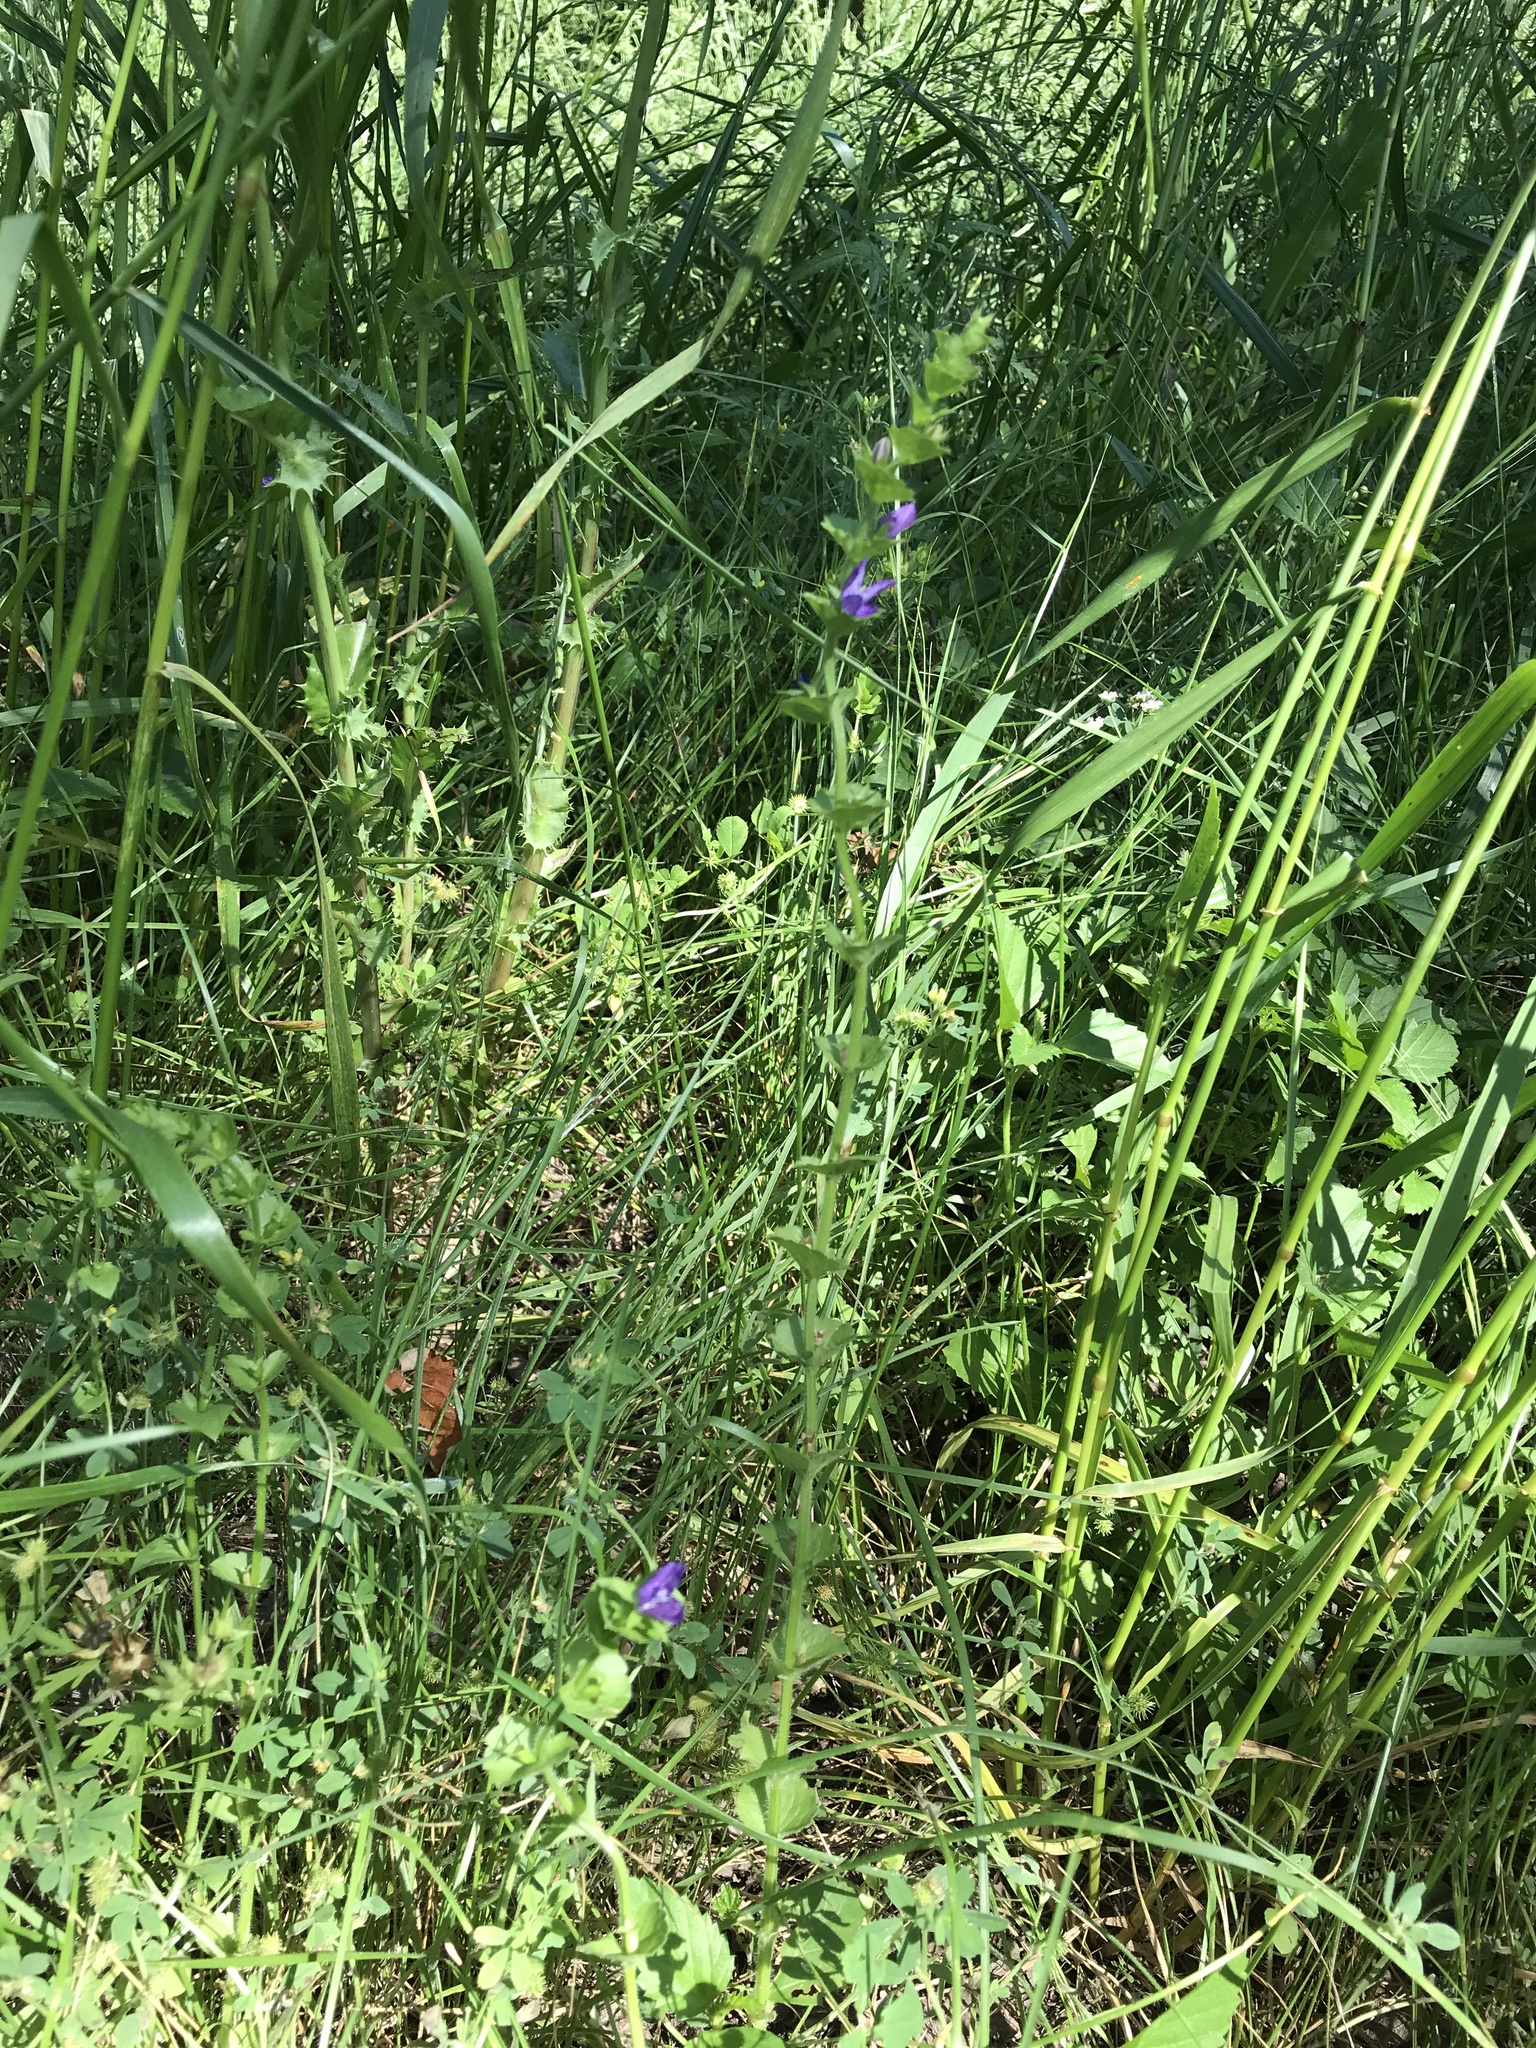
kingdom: Plantae
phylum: Tracheophyta
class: Magnoliopsida
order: Asterales
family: Campanulaceae
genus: Triodanis
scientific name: Triodanis perfoliata
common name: Clasping venus' looking-glass
